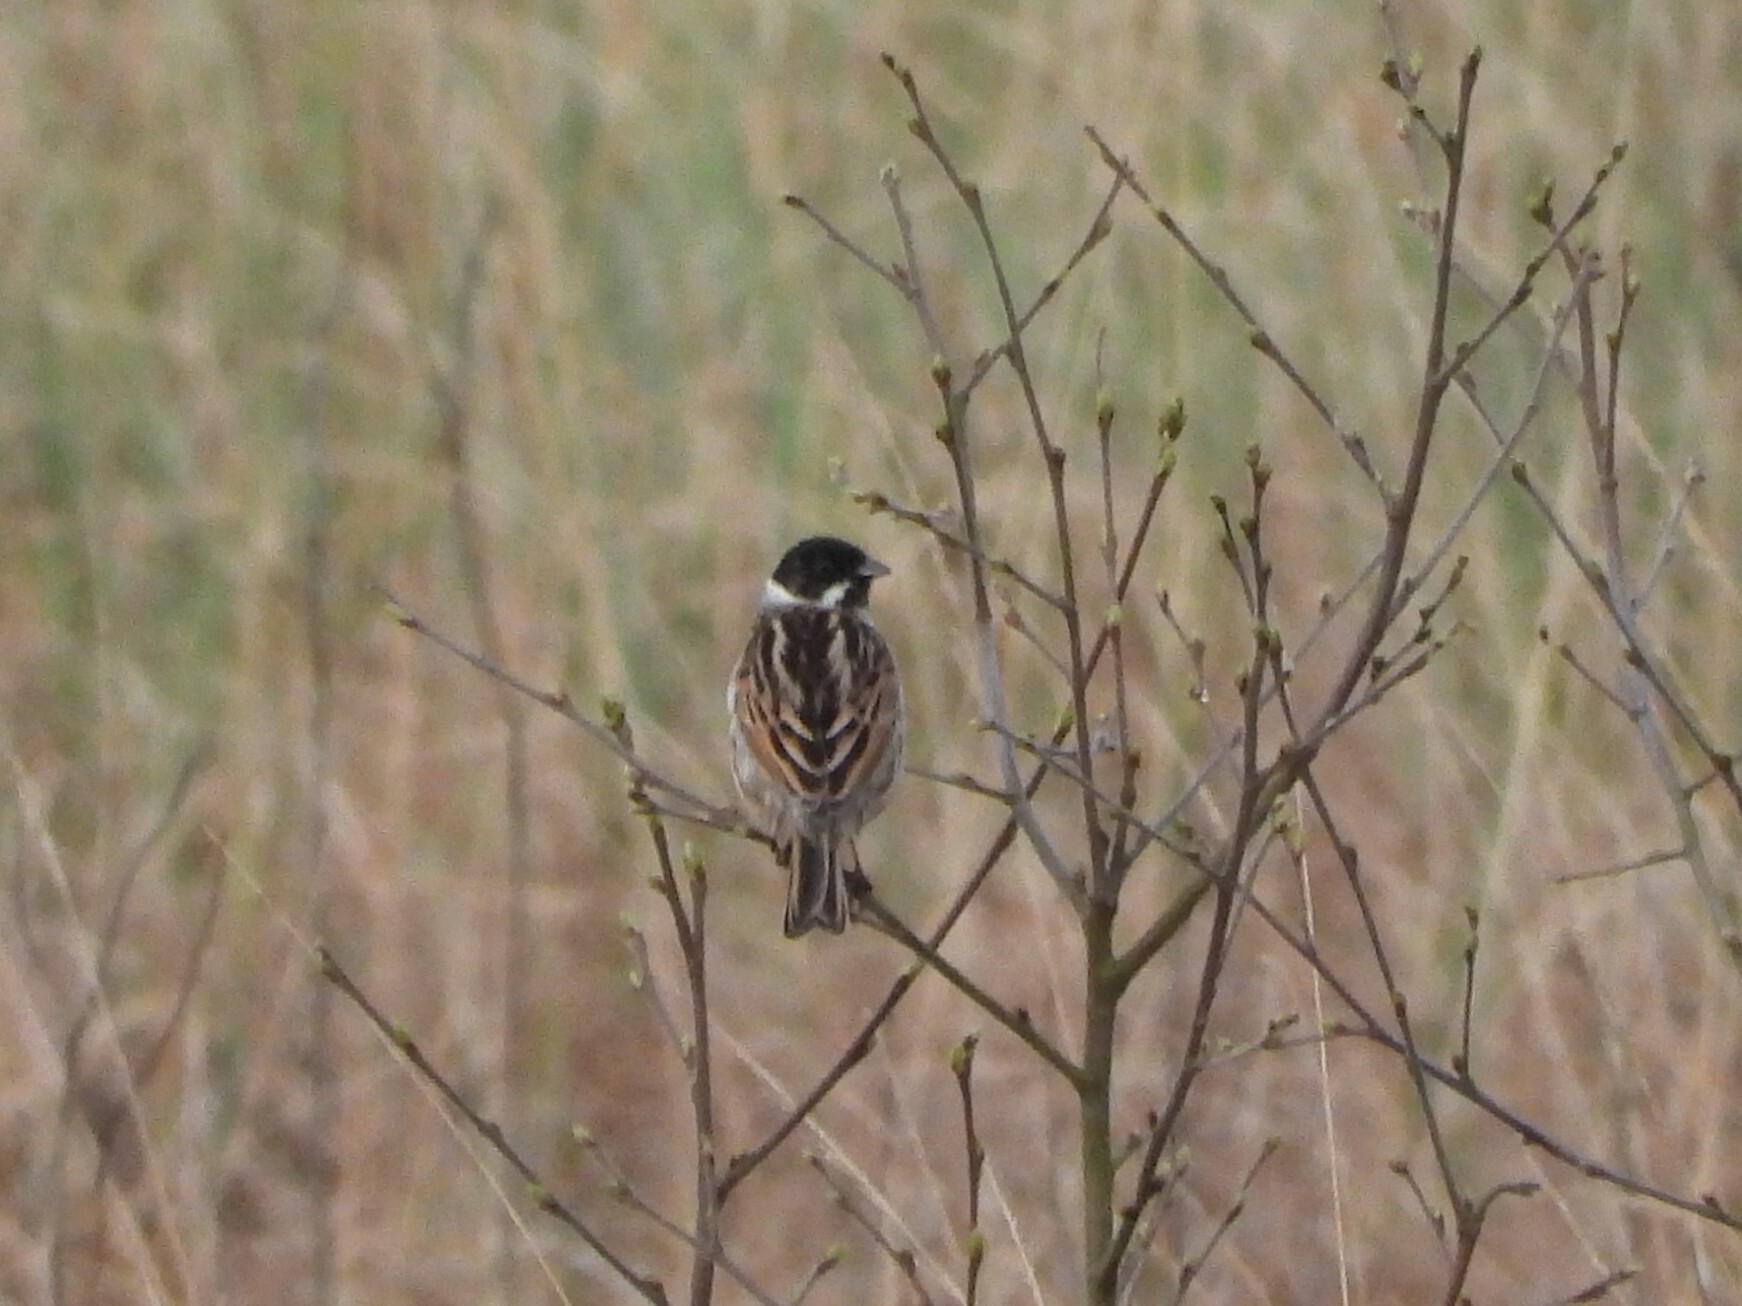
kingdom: Animalia
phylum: Chordata
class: Aves
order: Passeriformes
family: Emberizidae
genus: Emberiza
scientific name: Emberiza schoeniclus
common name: Reed bunting
